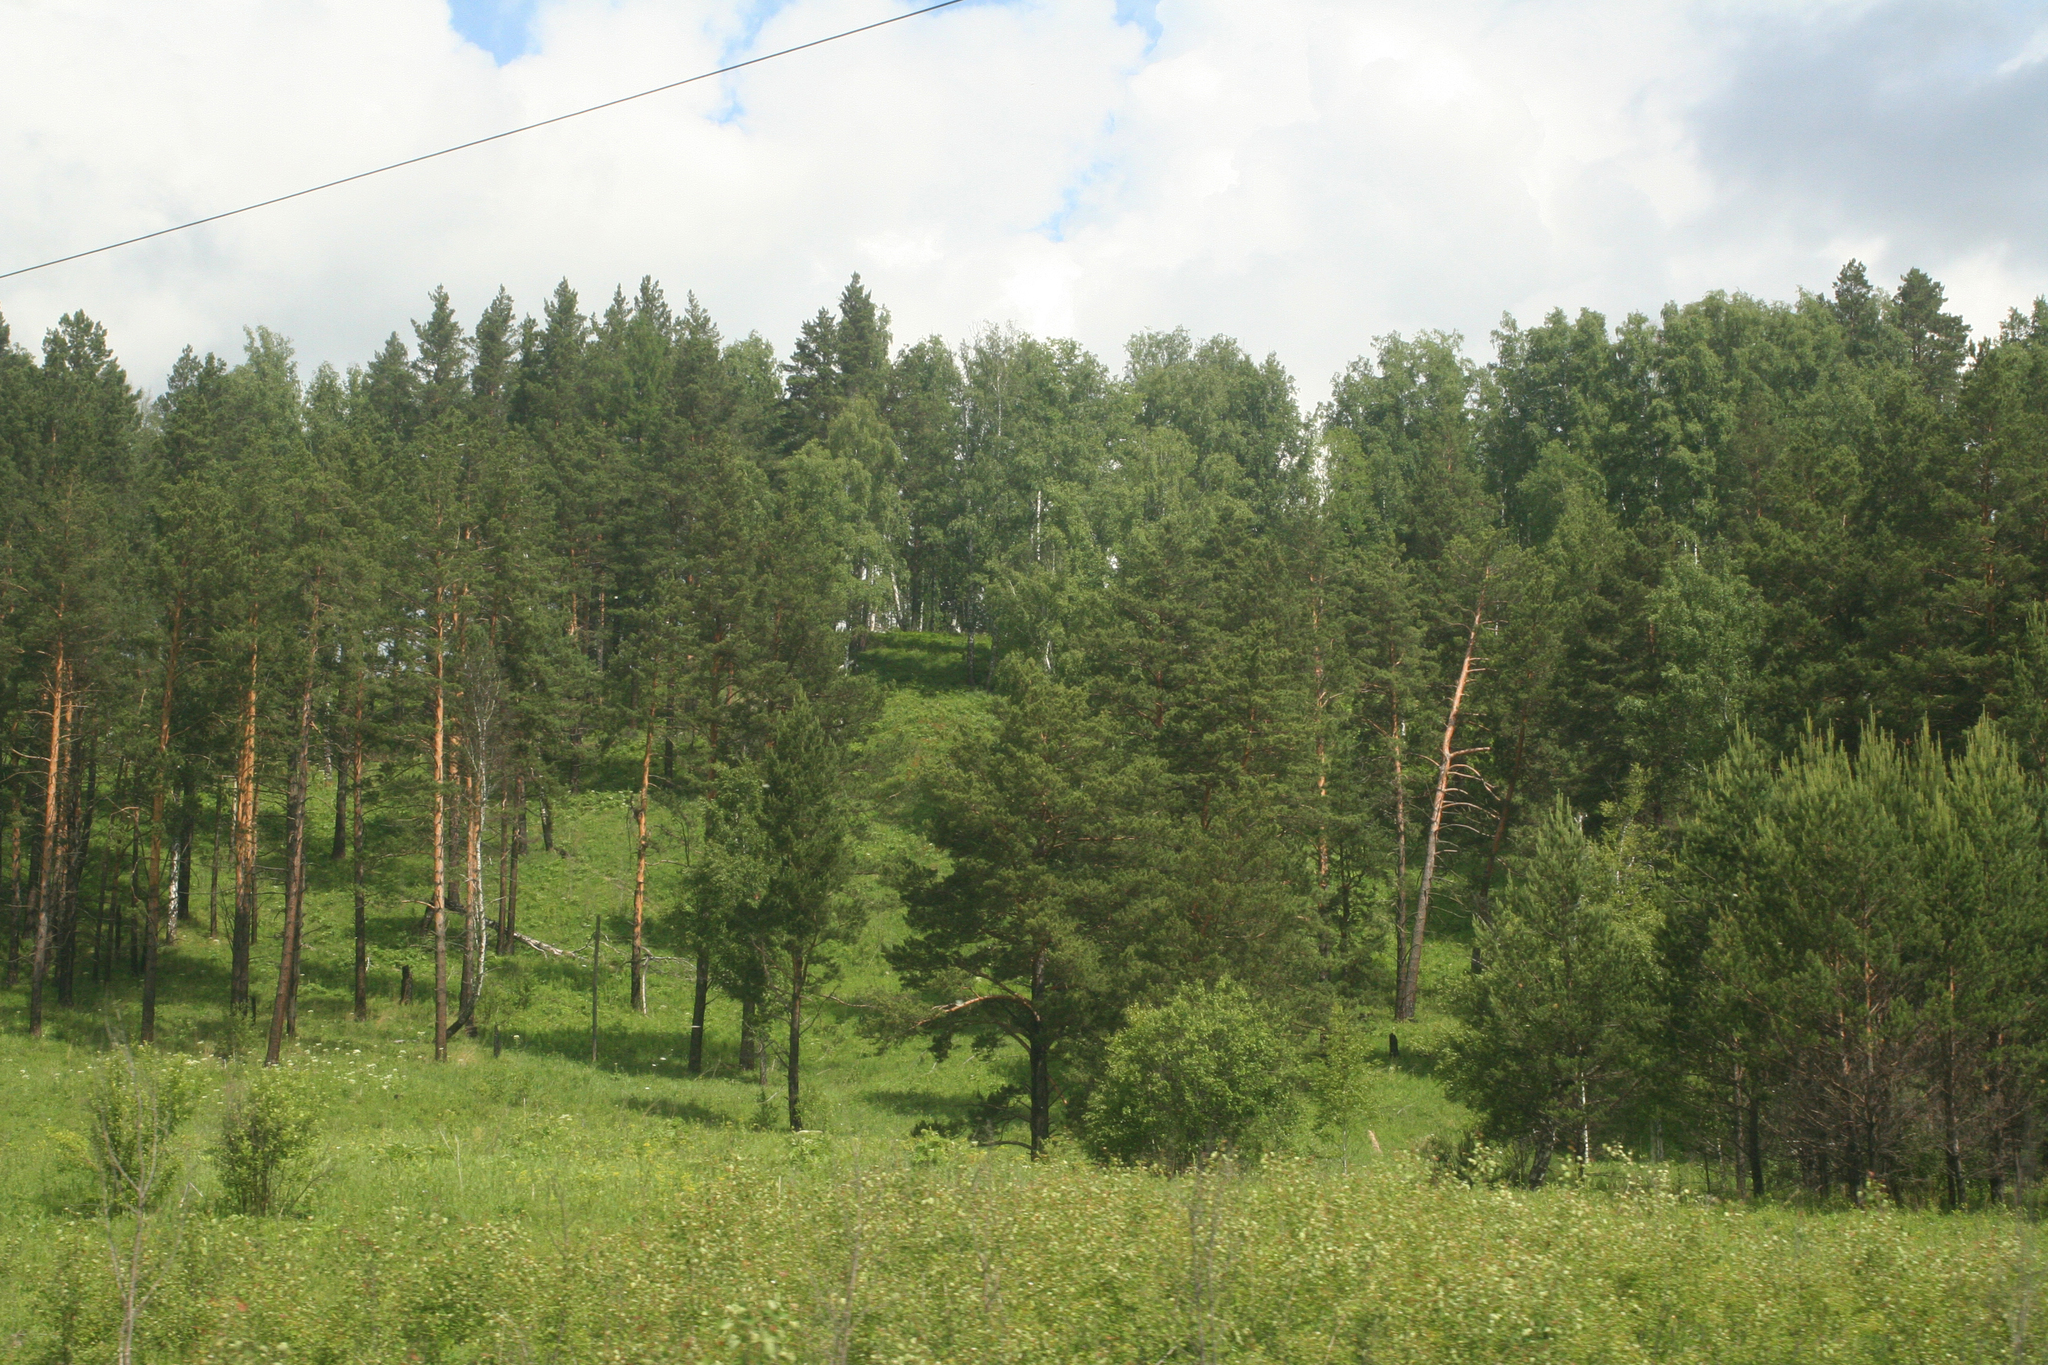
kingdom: Plantae
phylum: Tracheophyta
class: Pinopsida
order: Pinales
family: Pinaceae
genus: Pinus
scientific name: Pinus sylvestris
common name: Scots pine
